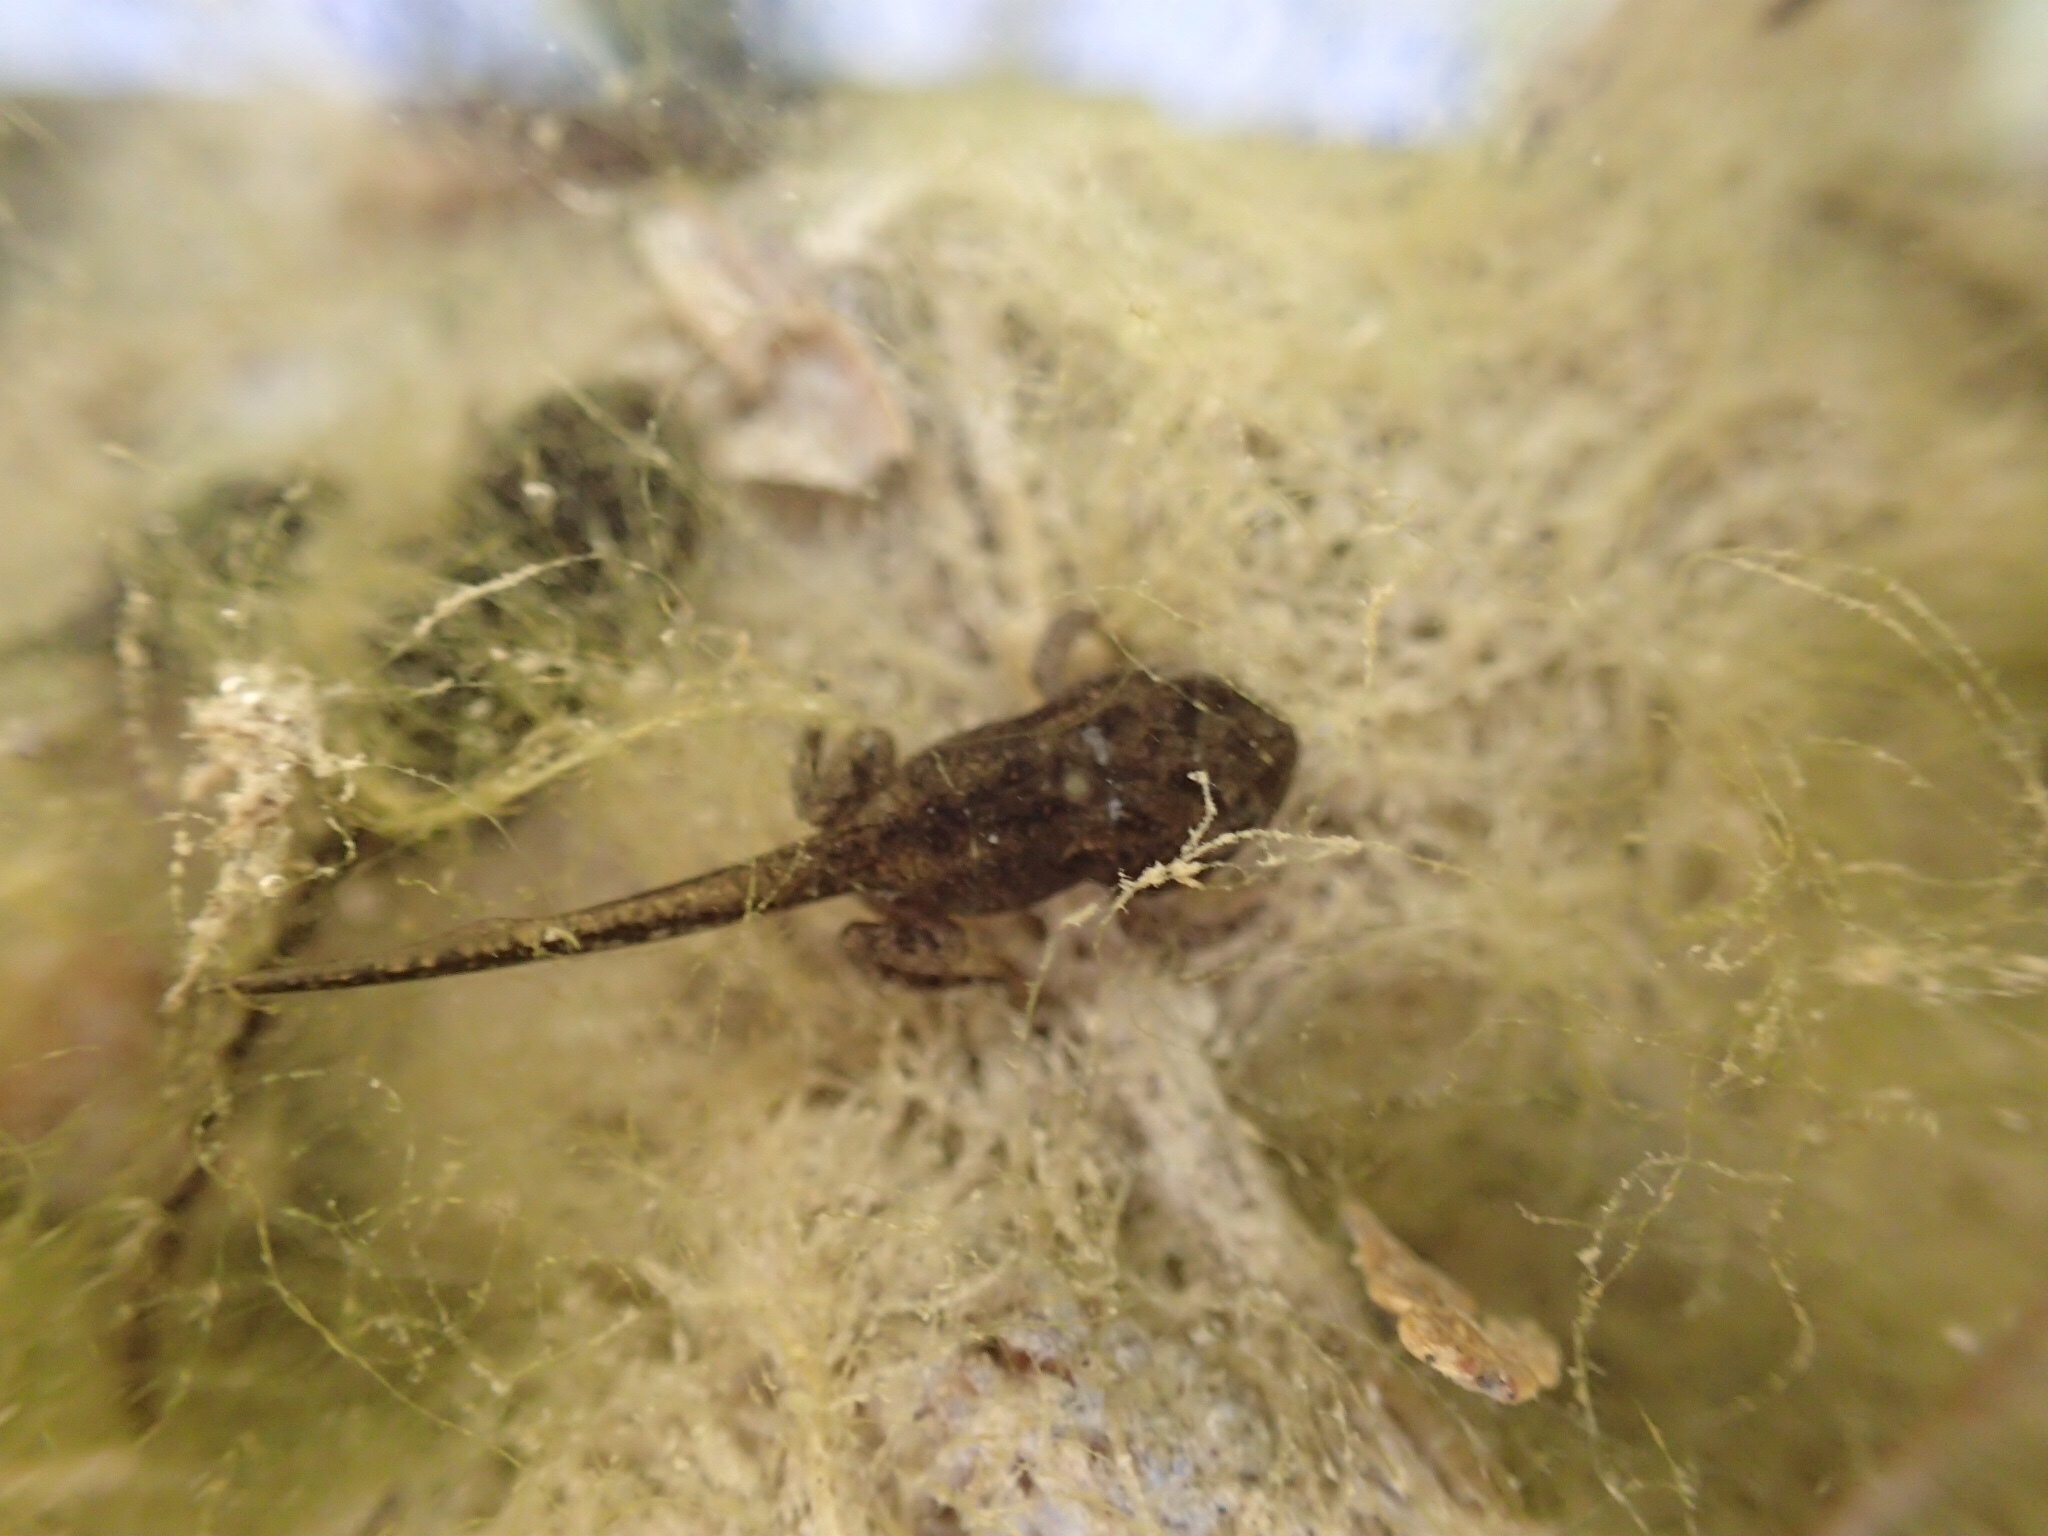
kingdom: Animalia
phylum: Chordata
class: Amphibia
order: Anura
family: Bufonidae
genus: Anaxyrus
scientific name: Anaxyrus americanus
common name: American toad
